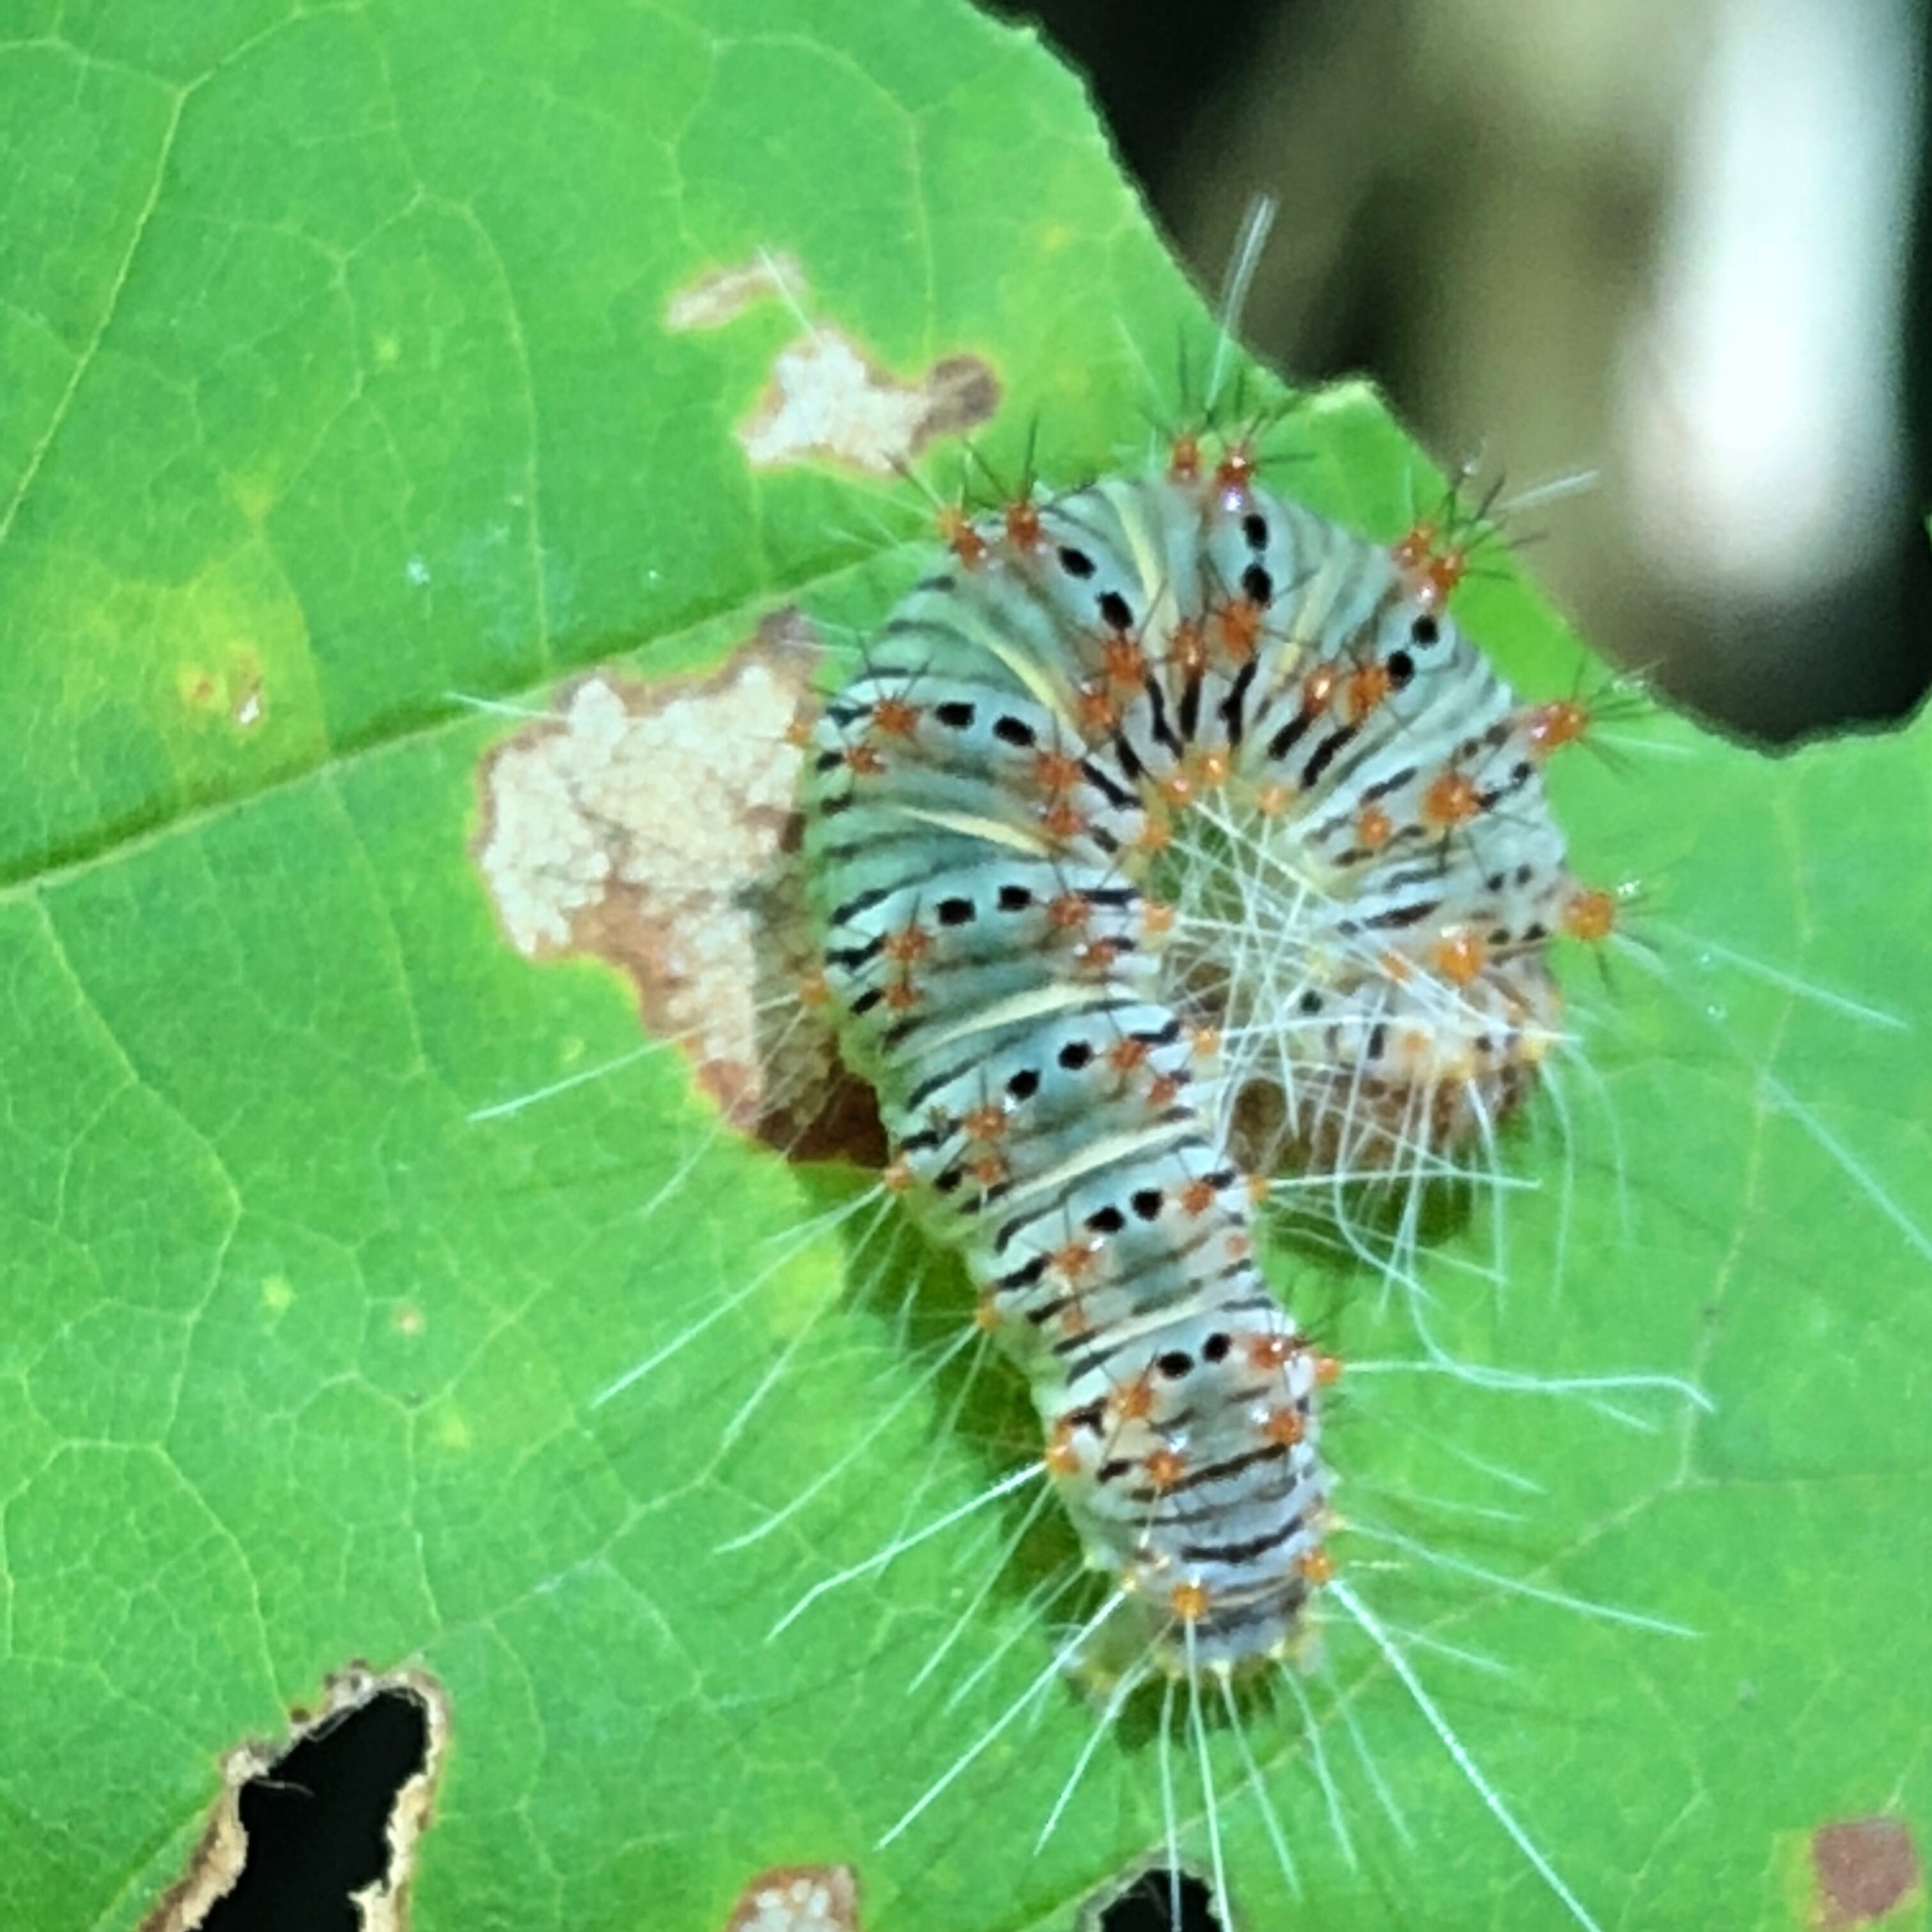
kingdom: Animalia
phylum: Arthropoda
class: Insecta
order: Lepidoptera
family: Noctuidae
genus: Acronicta
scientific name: Acronicta retardata
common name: Maple dagger
